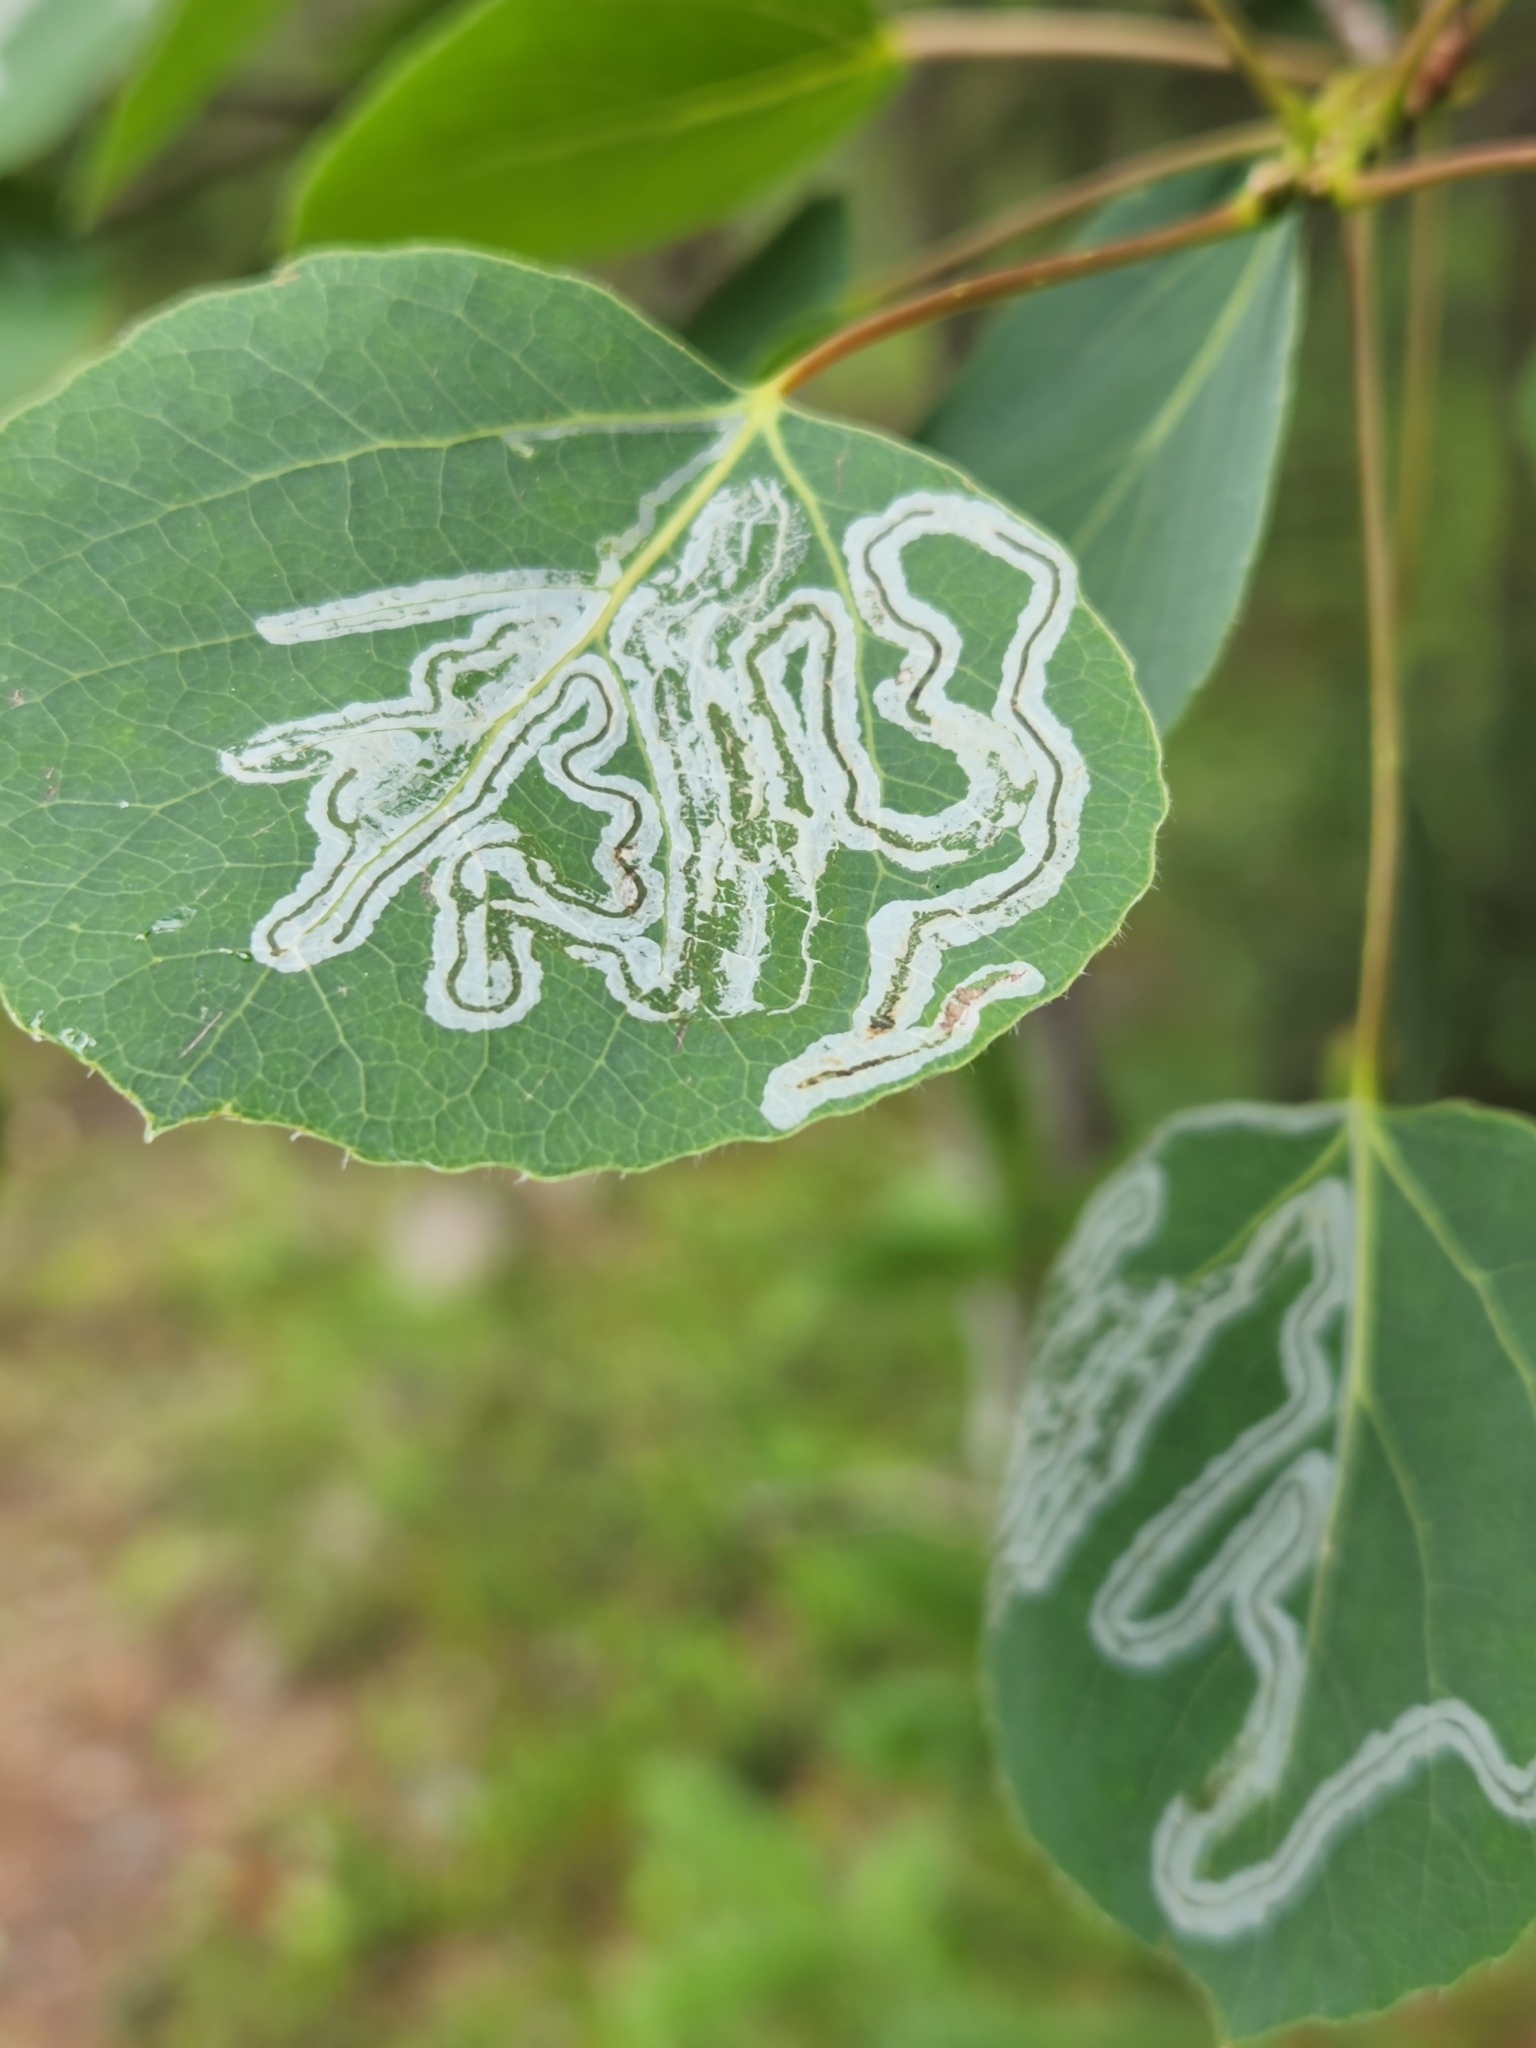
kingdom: Animalia
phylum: Arthropoda
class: Insecta
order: Lepidoptera
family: Gracillariidae
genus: Phyllocnistis
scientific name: Phyllocnistis populiella
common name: Aspen serpentine leafminer moth
